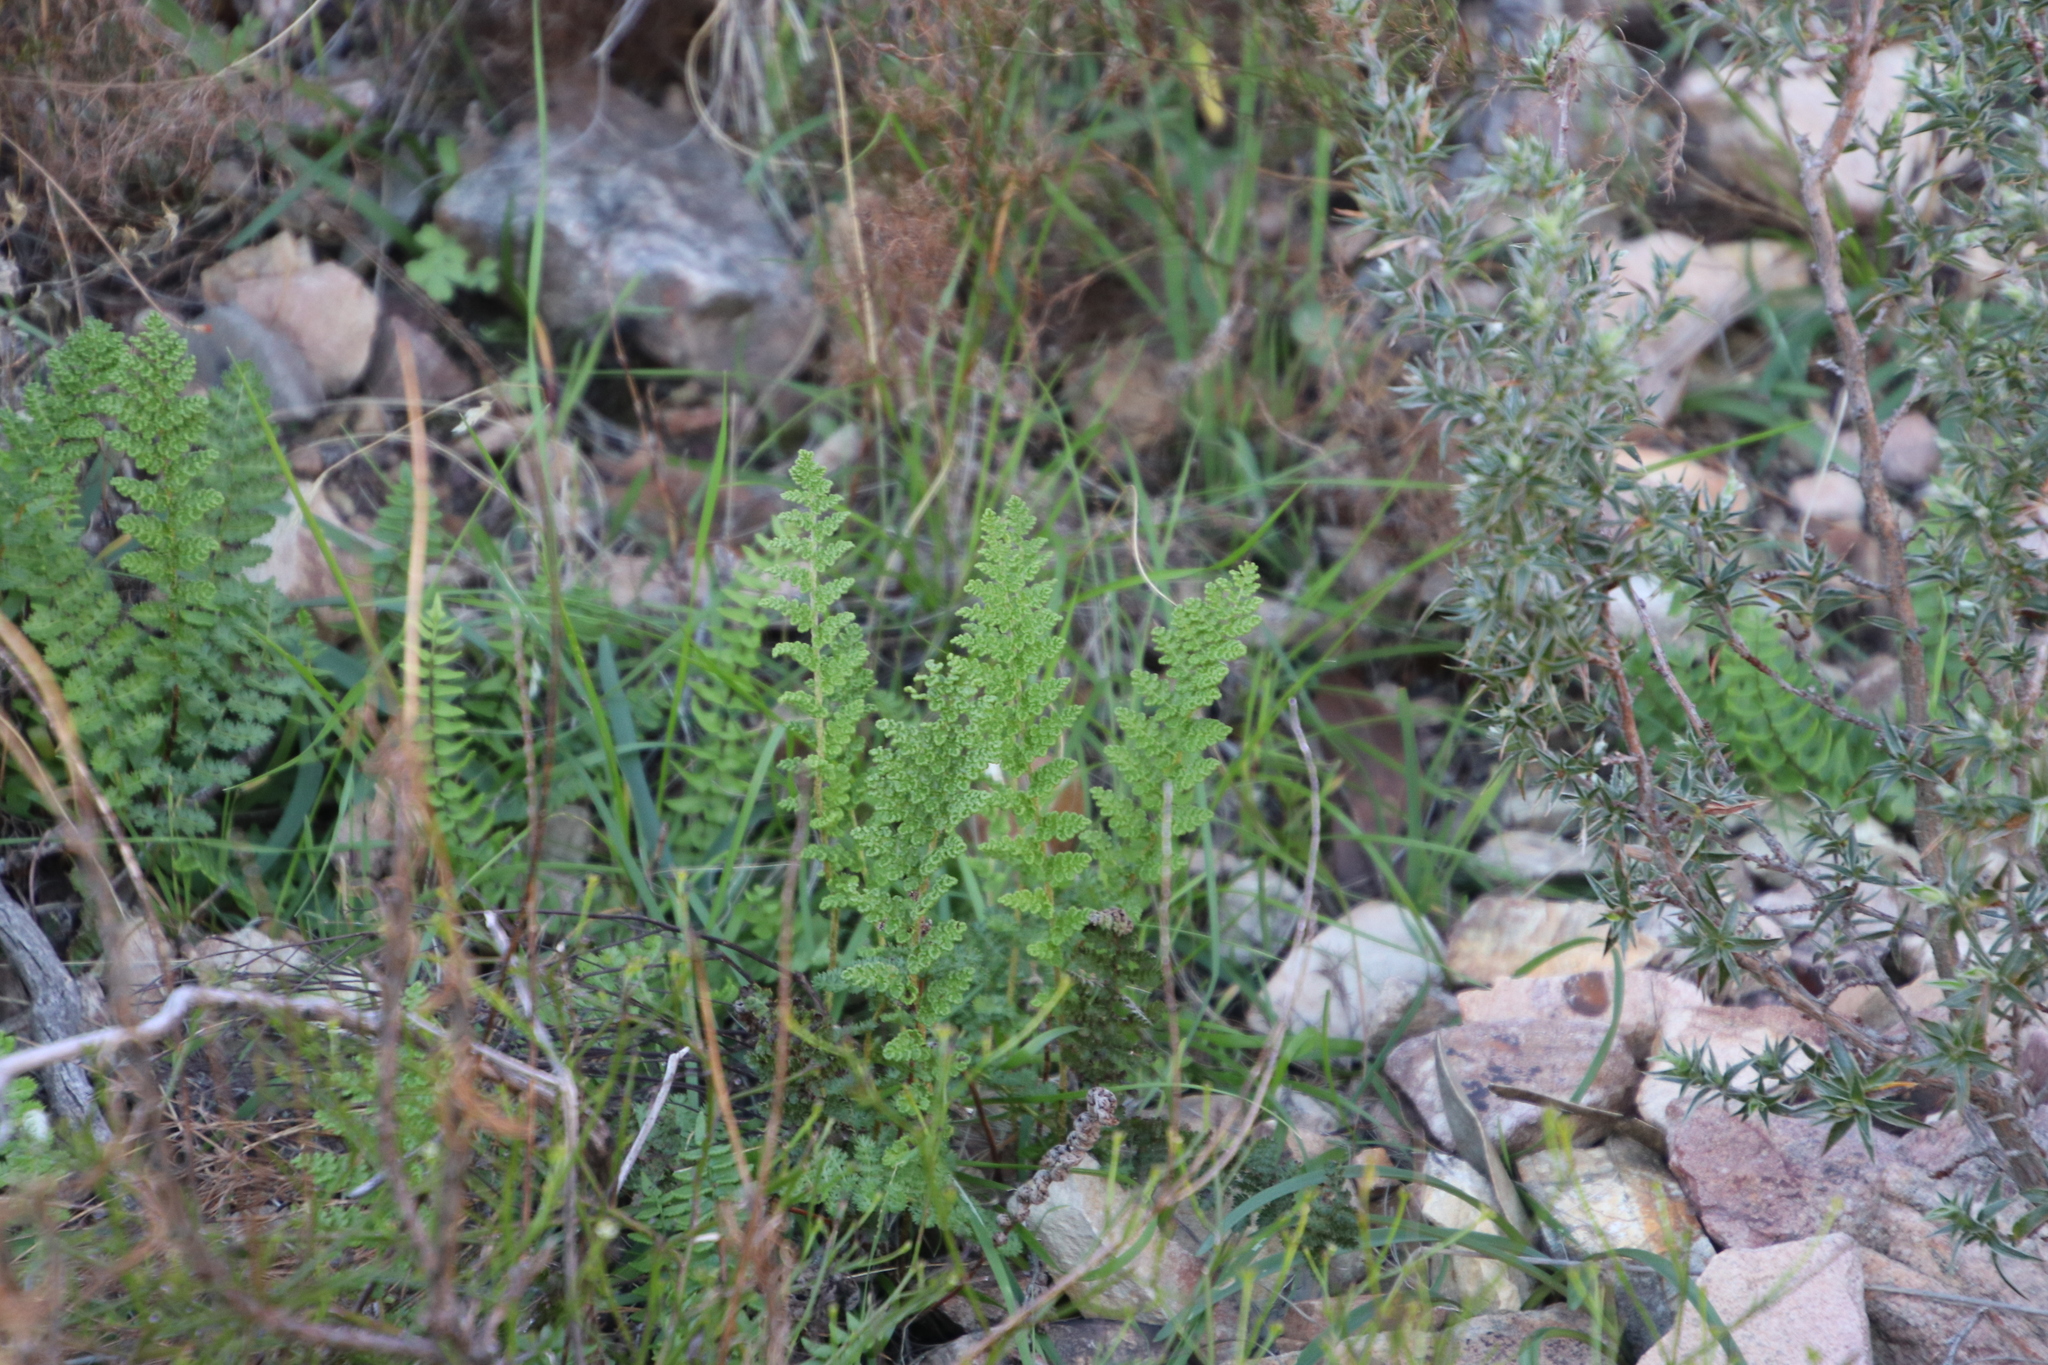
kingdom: Plantae
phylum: Tracheophyta
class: Polypodiopsida
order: Schizaeales
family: Anemiaceae
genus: Anemia
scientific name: Anemia caffrorum
